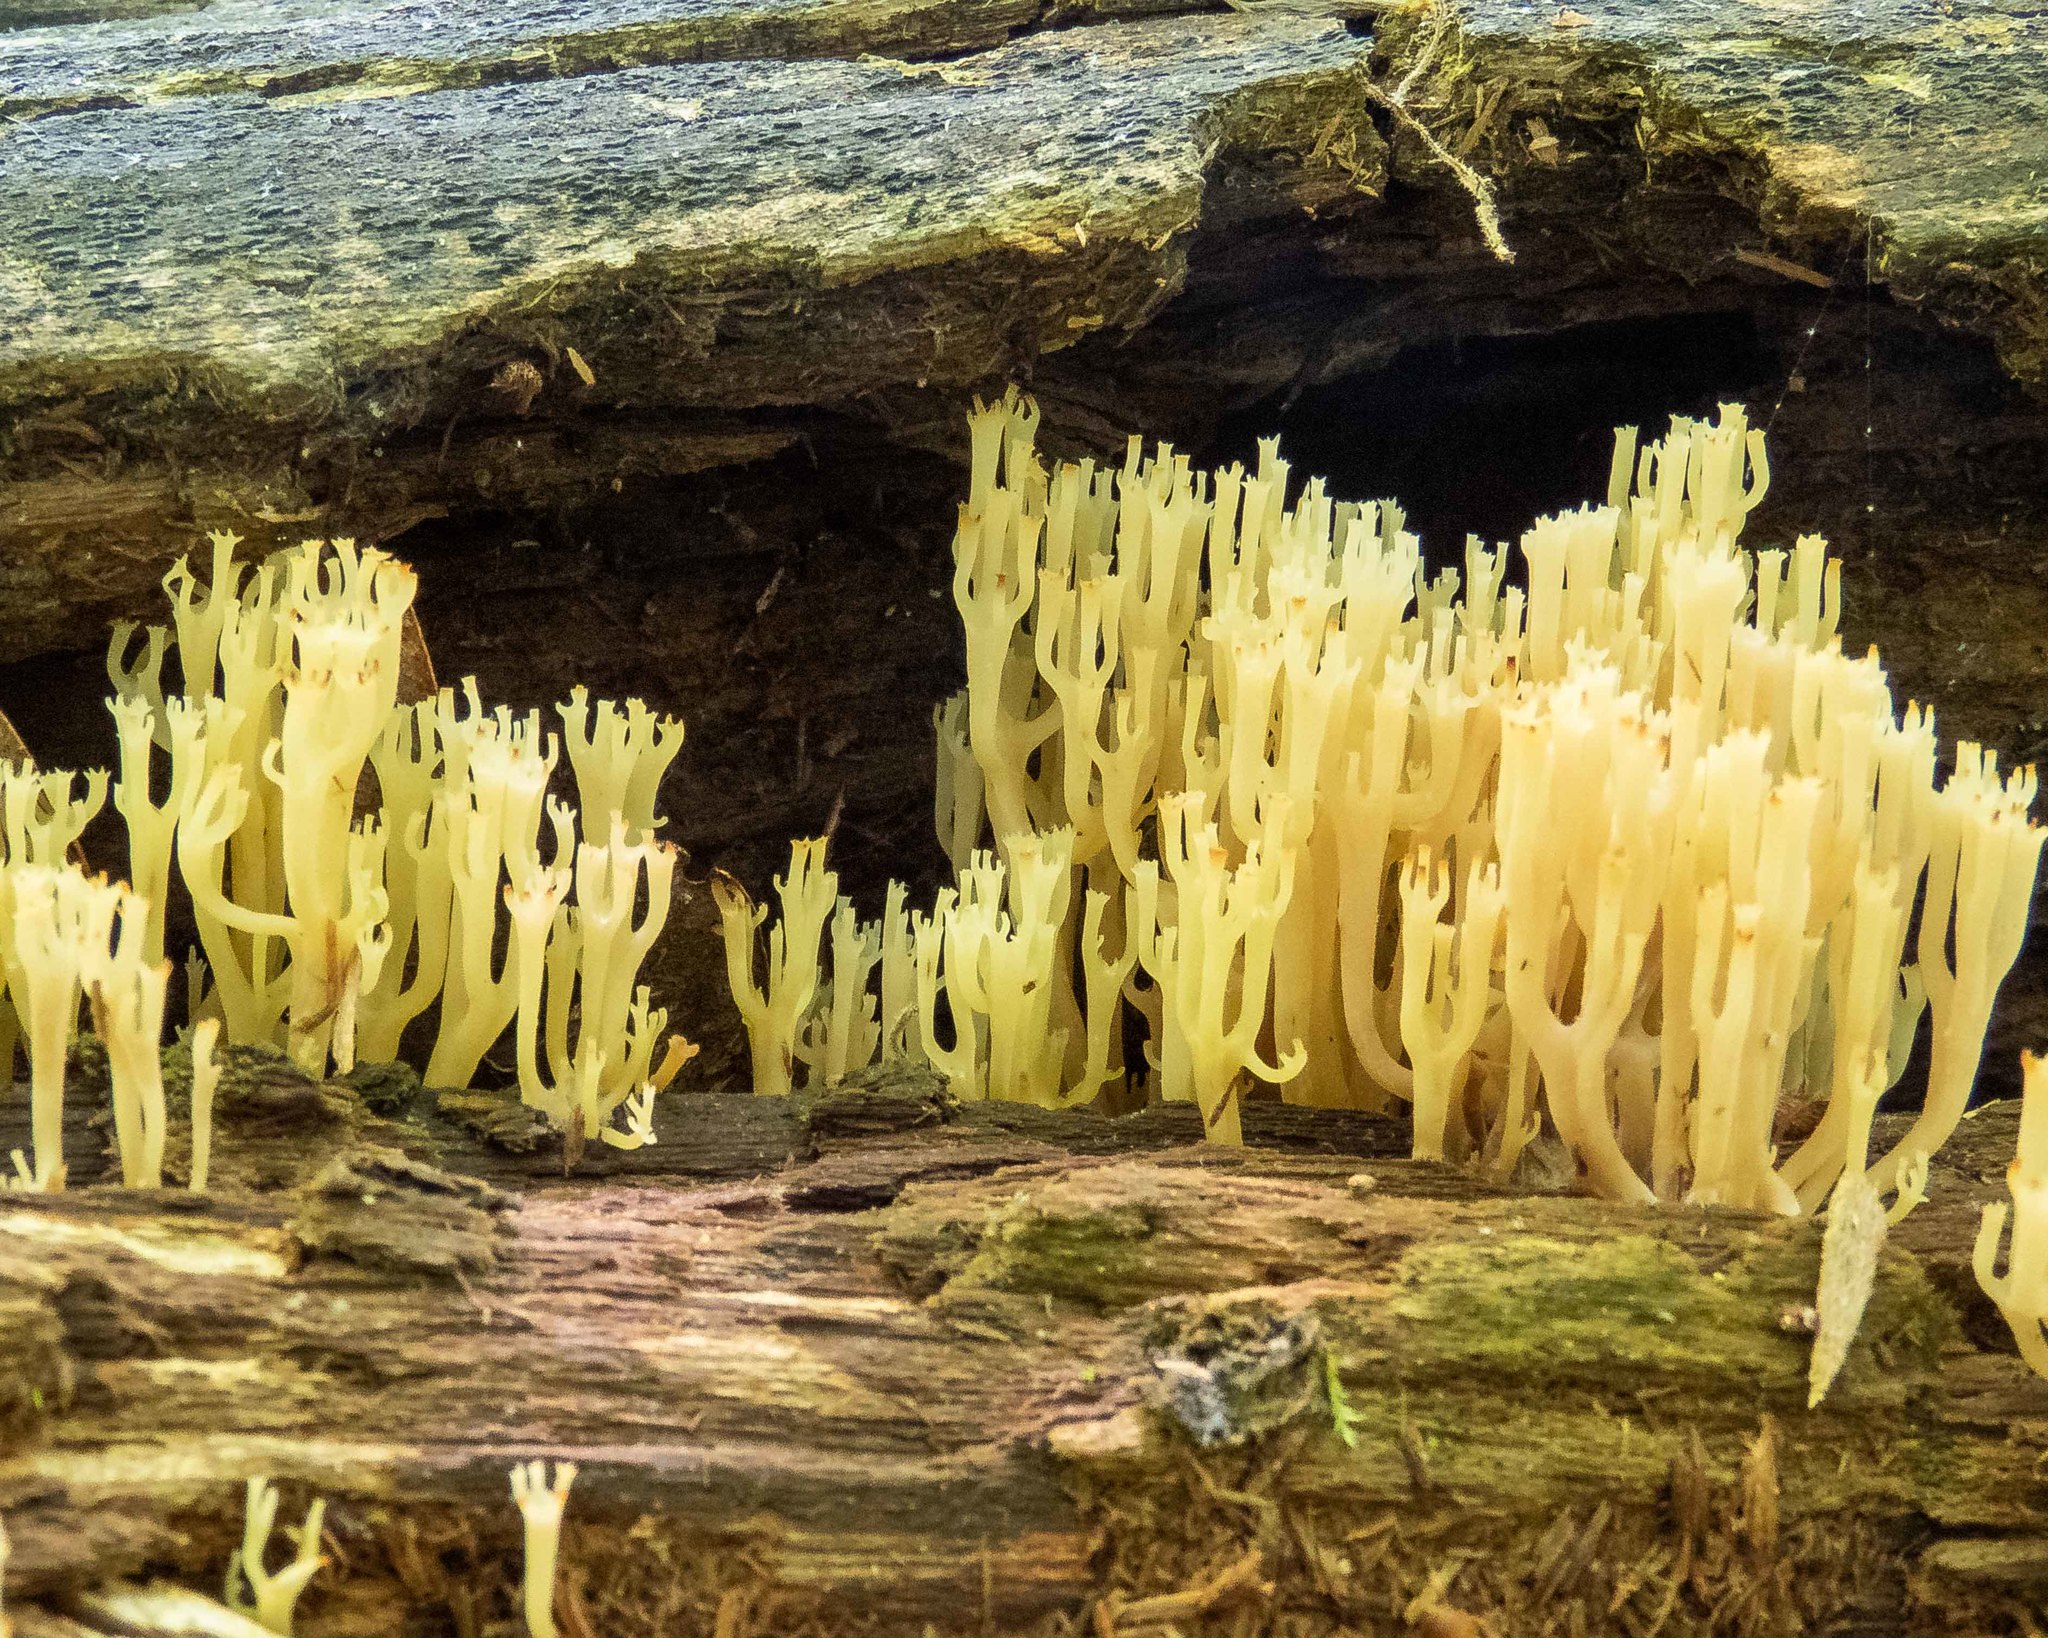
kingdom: Fungi
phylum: Basidiomycota
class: Agaricomycetes
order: Russulales
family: Auriscalpiaceae
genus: Artomyces
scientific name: Artomyces pyxidatus
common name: Crown-tipped coral fungus
